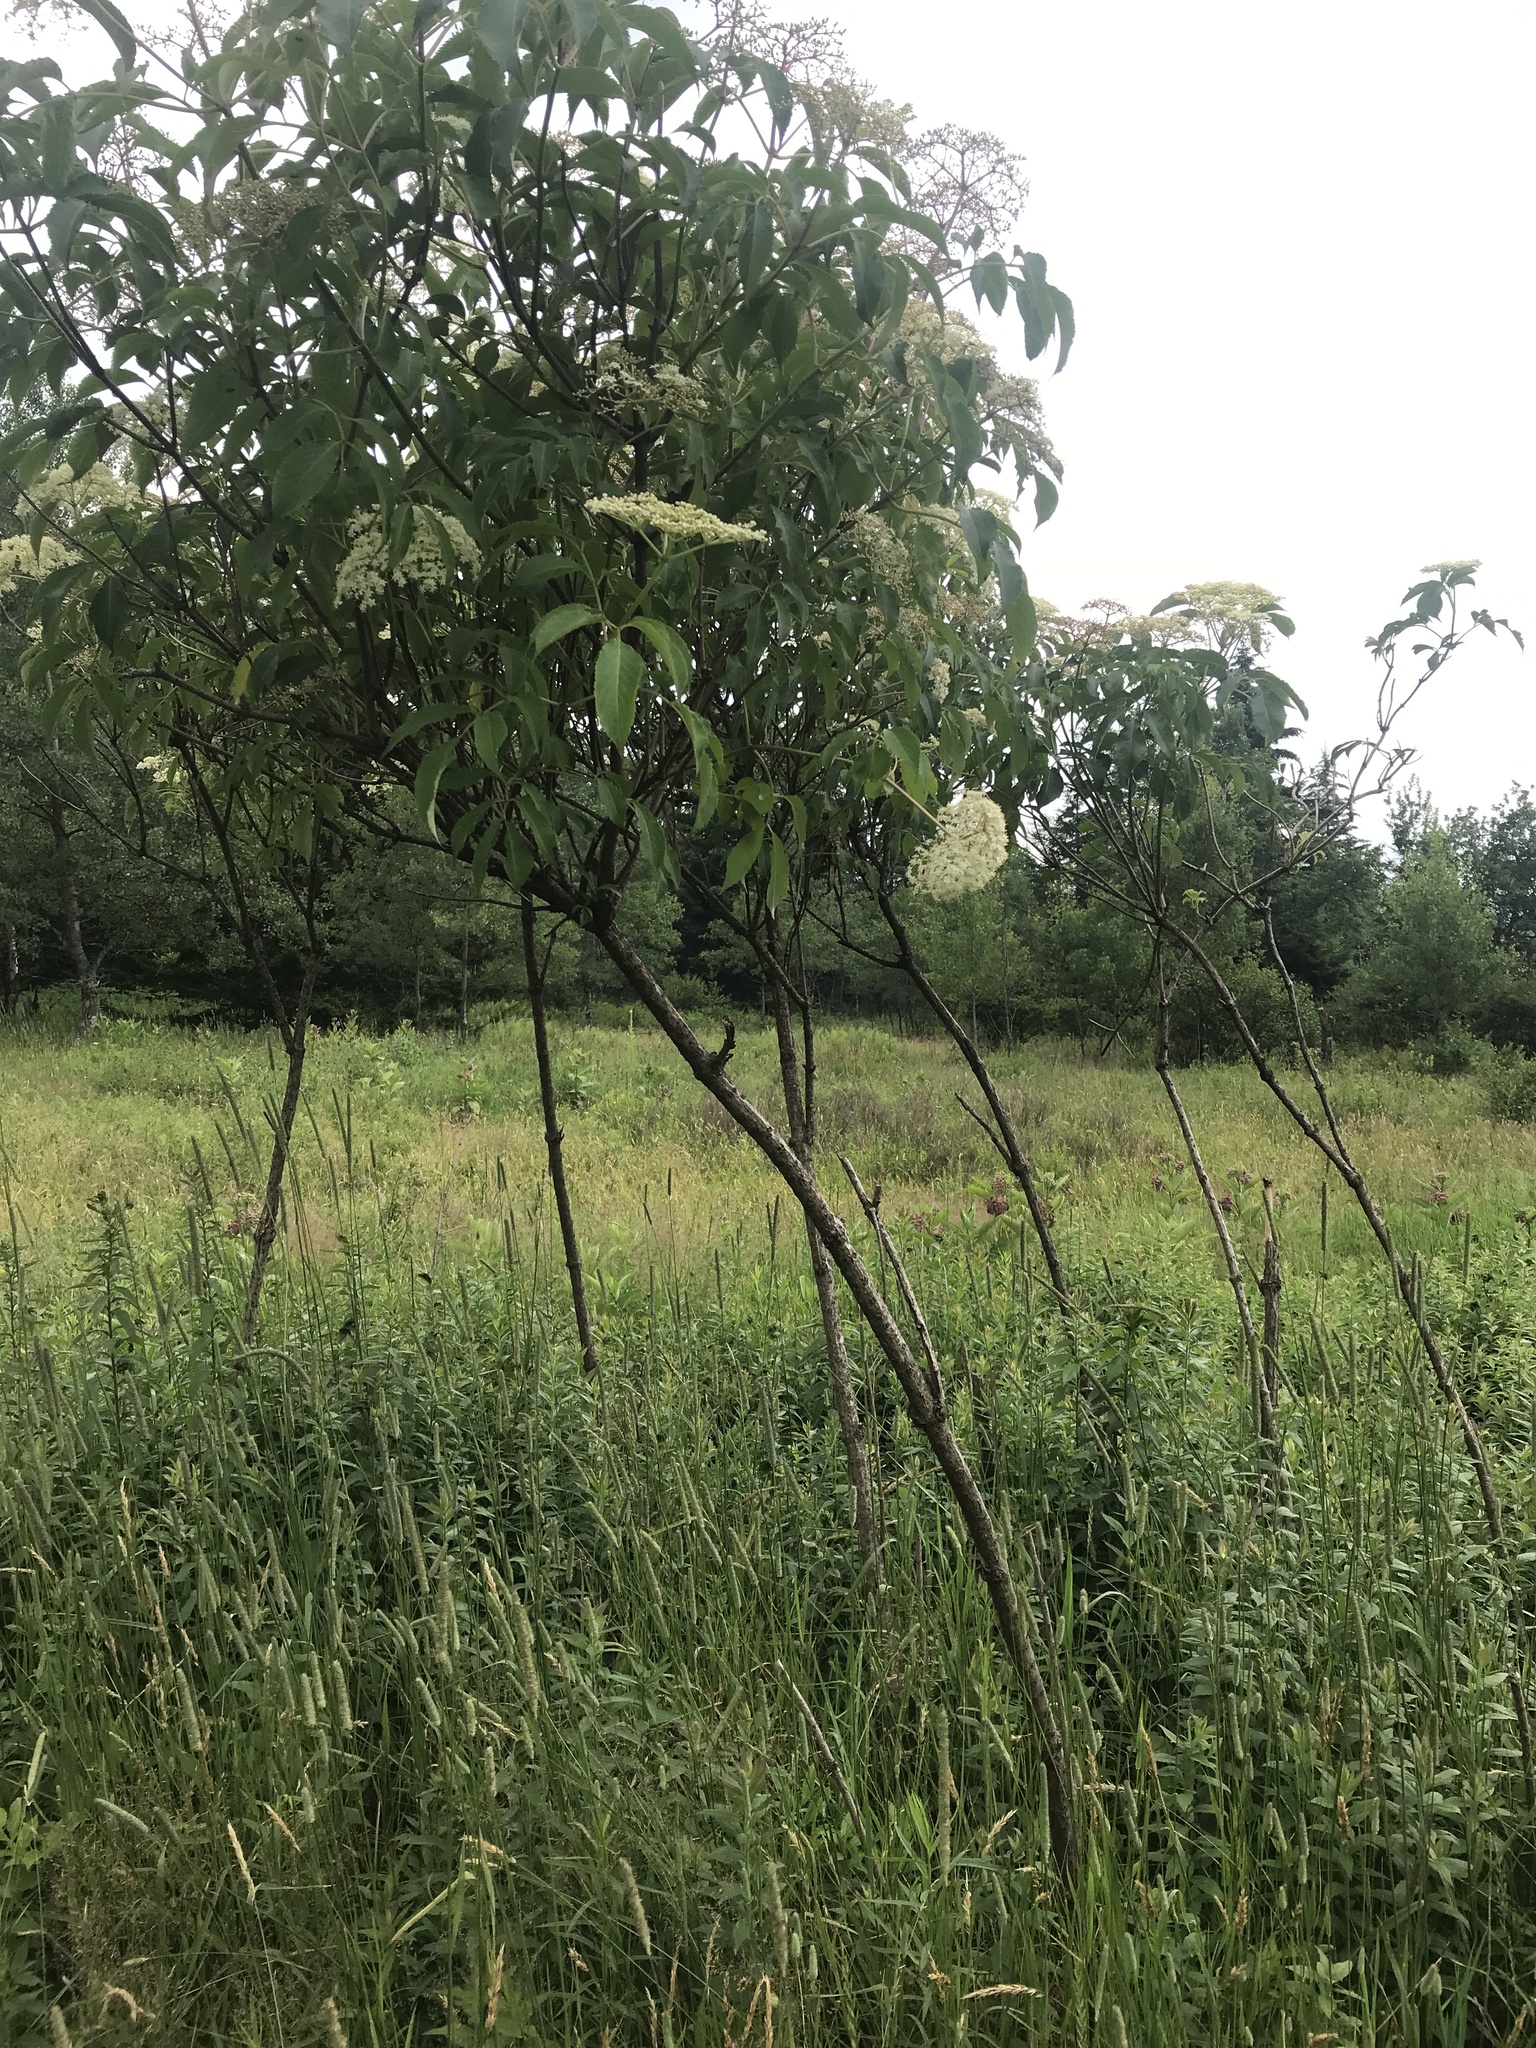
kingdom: Plantae
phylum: Tracheophyta
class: Magnoliopsida
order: Dipsacales
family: Viburnaceae
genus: Sambucus
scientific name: Sambucus canadensis
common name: American elder
